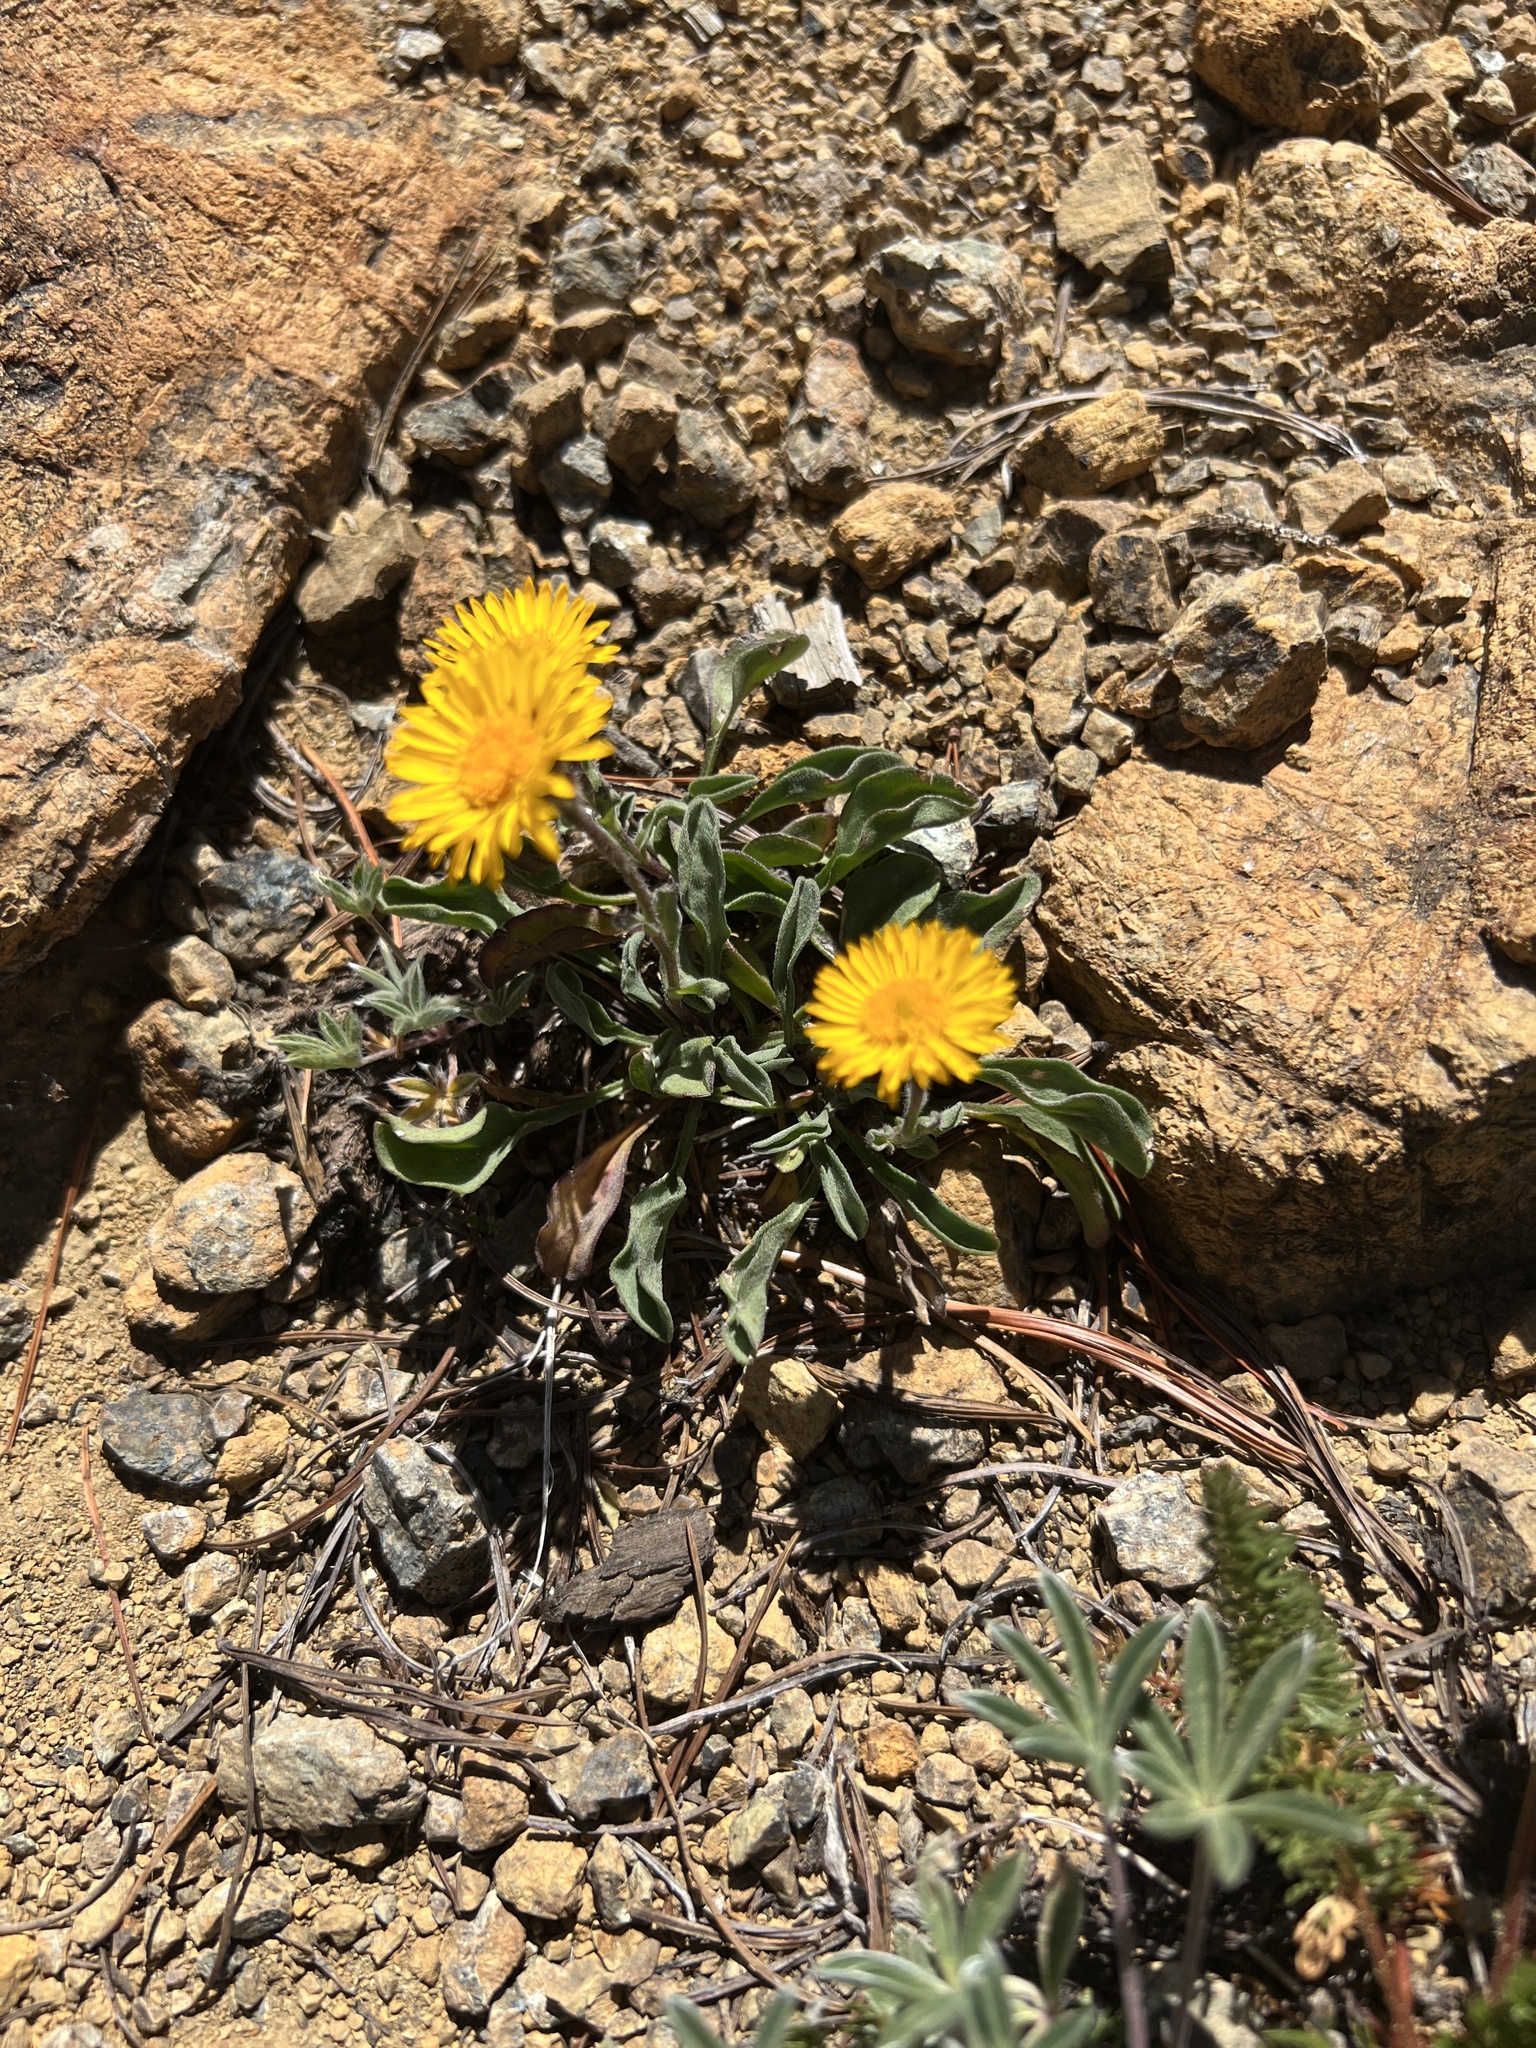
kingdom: Plantae
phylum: Tracheophyta
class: Magnoliopsida
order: Asterales
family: Asteraceae
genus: Erigeron
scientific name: Erigeron aureus
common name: Alpine yellow fleabane
